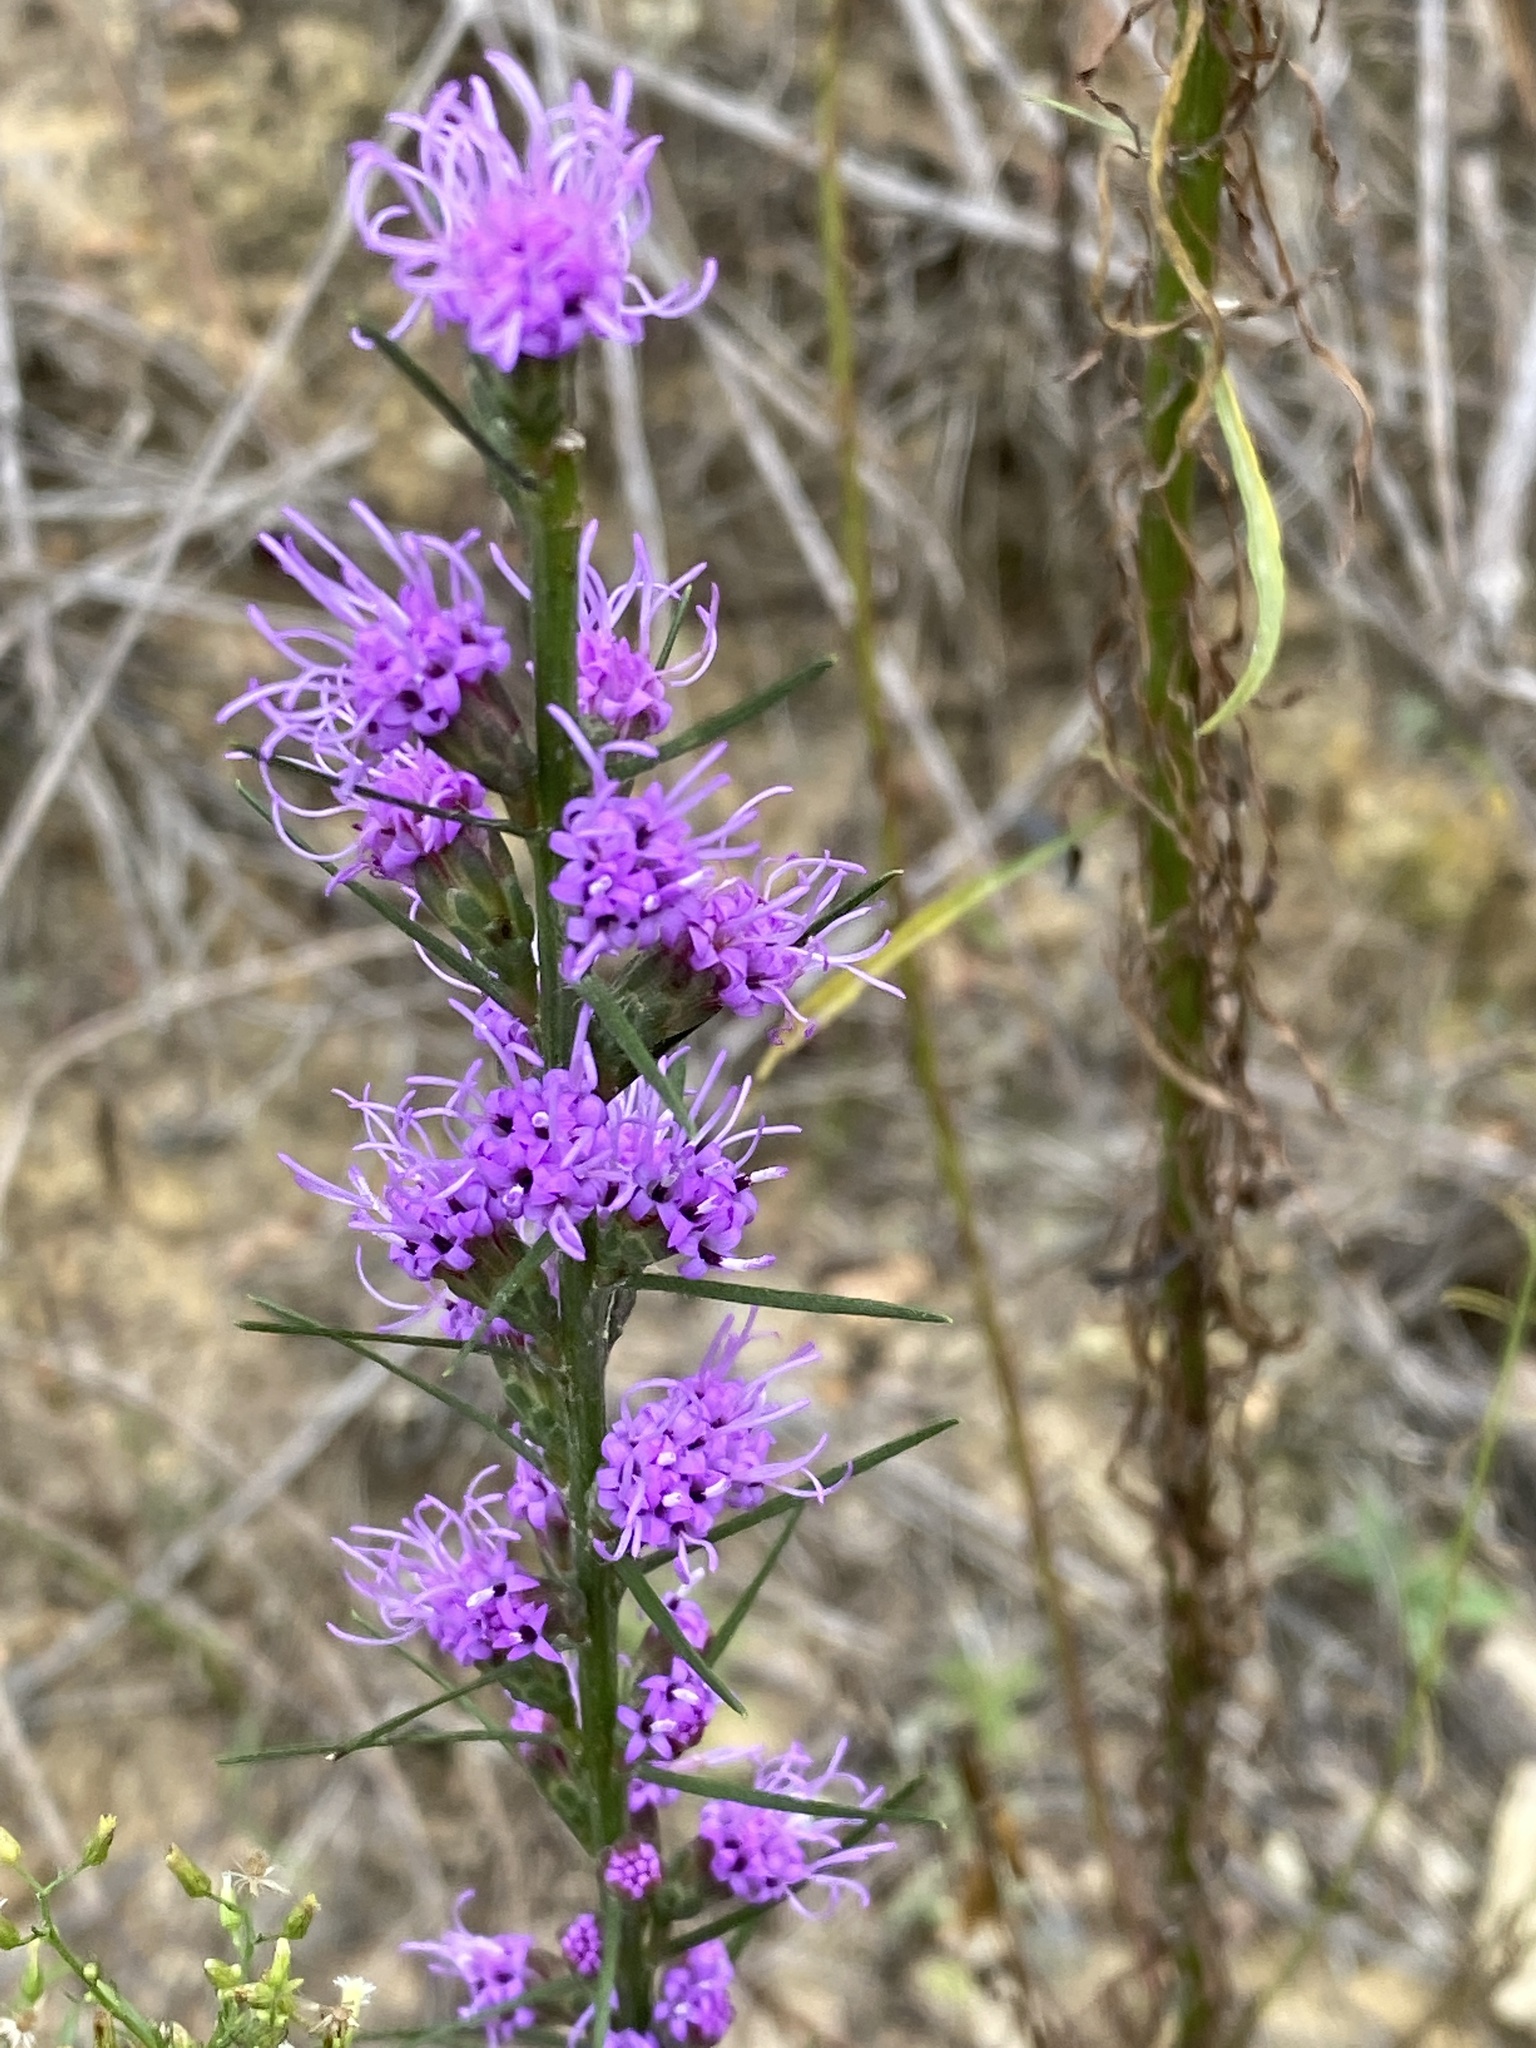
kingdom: Plantae
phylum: Tracheophyta
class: Magnoliopsida
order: Asterales
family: Asteraceae
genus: Liatris
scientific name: Liatris pilosa
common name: Grass-leaf gayfeather
